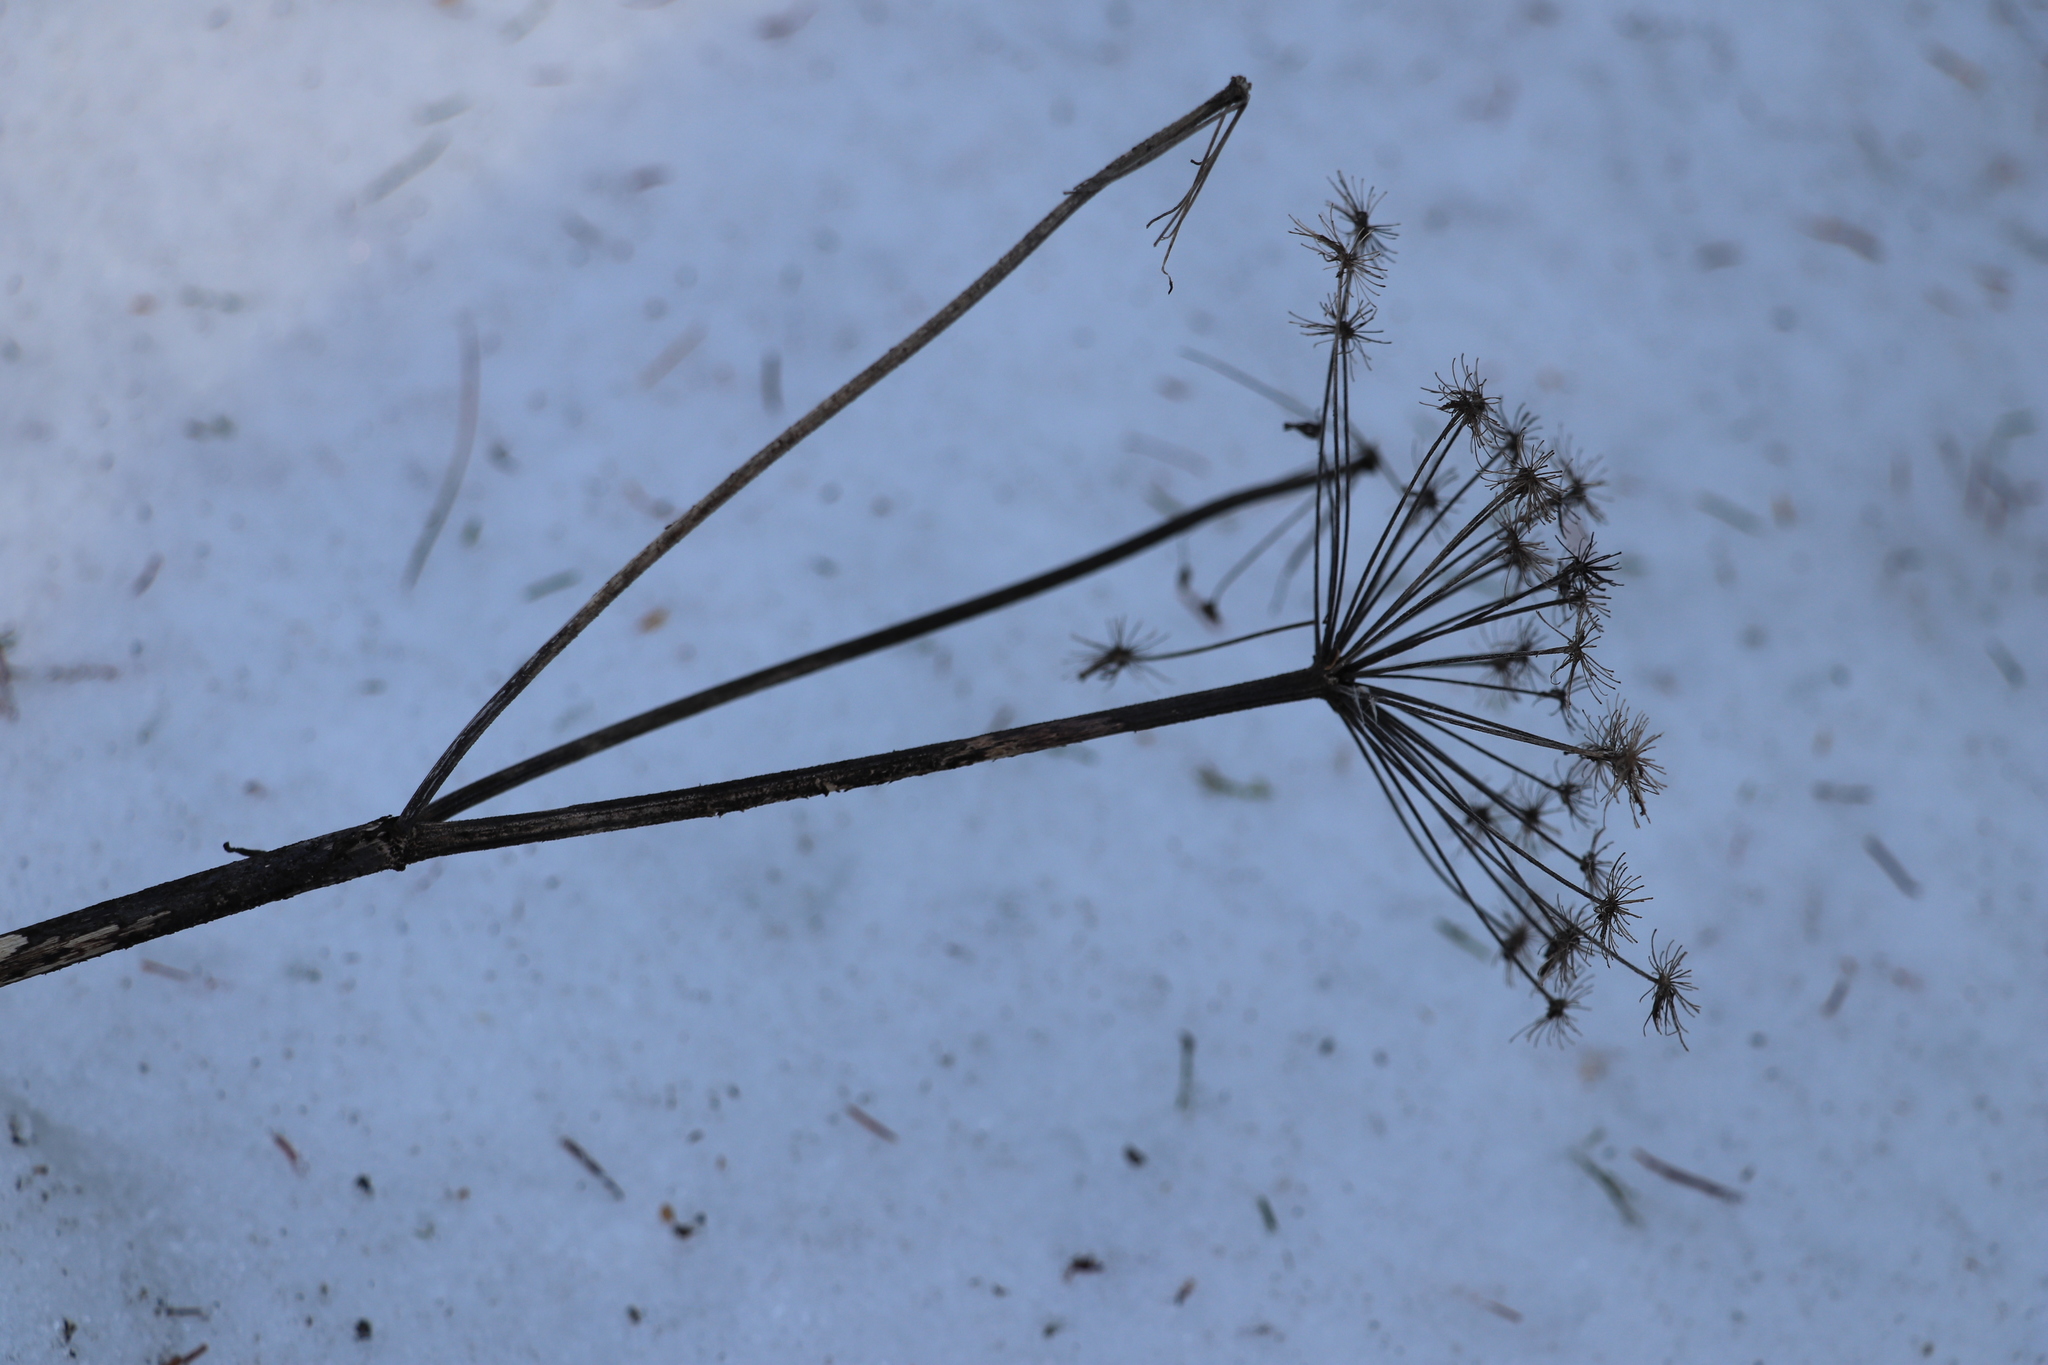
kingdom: Plantae
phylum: Tracheophyta
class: Magnoliopsida
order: Apiales
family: Apiaceae
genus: Angelica
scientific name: Angelica sylvestris
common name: Wild angelica
